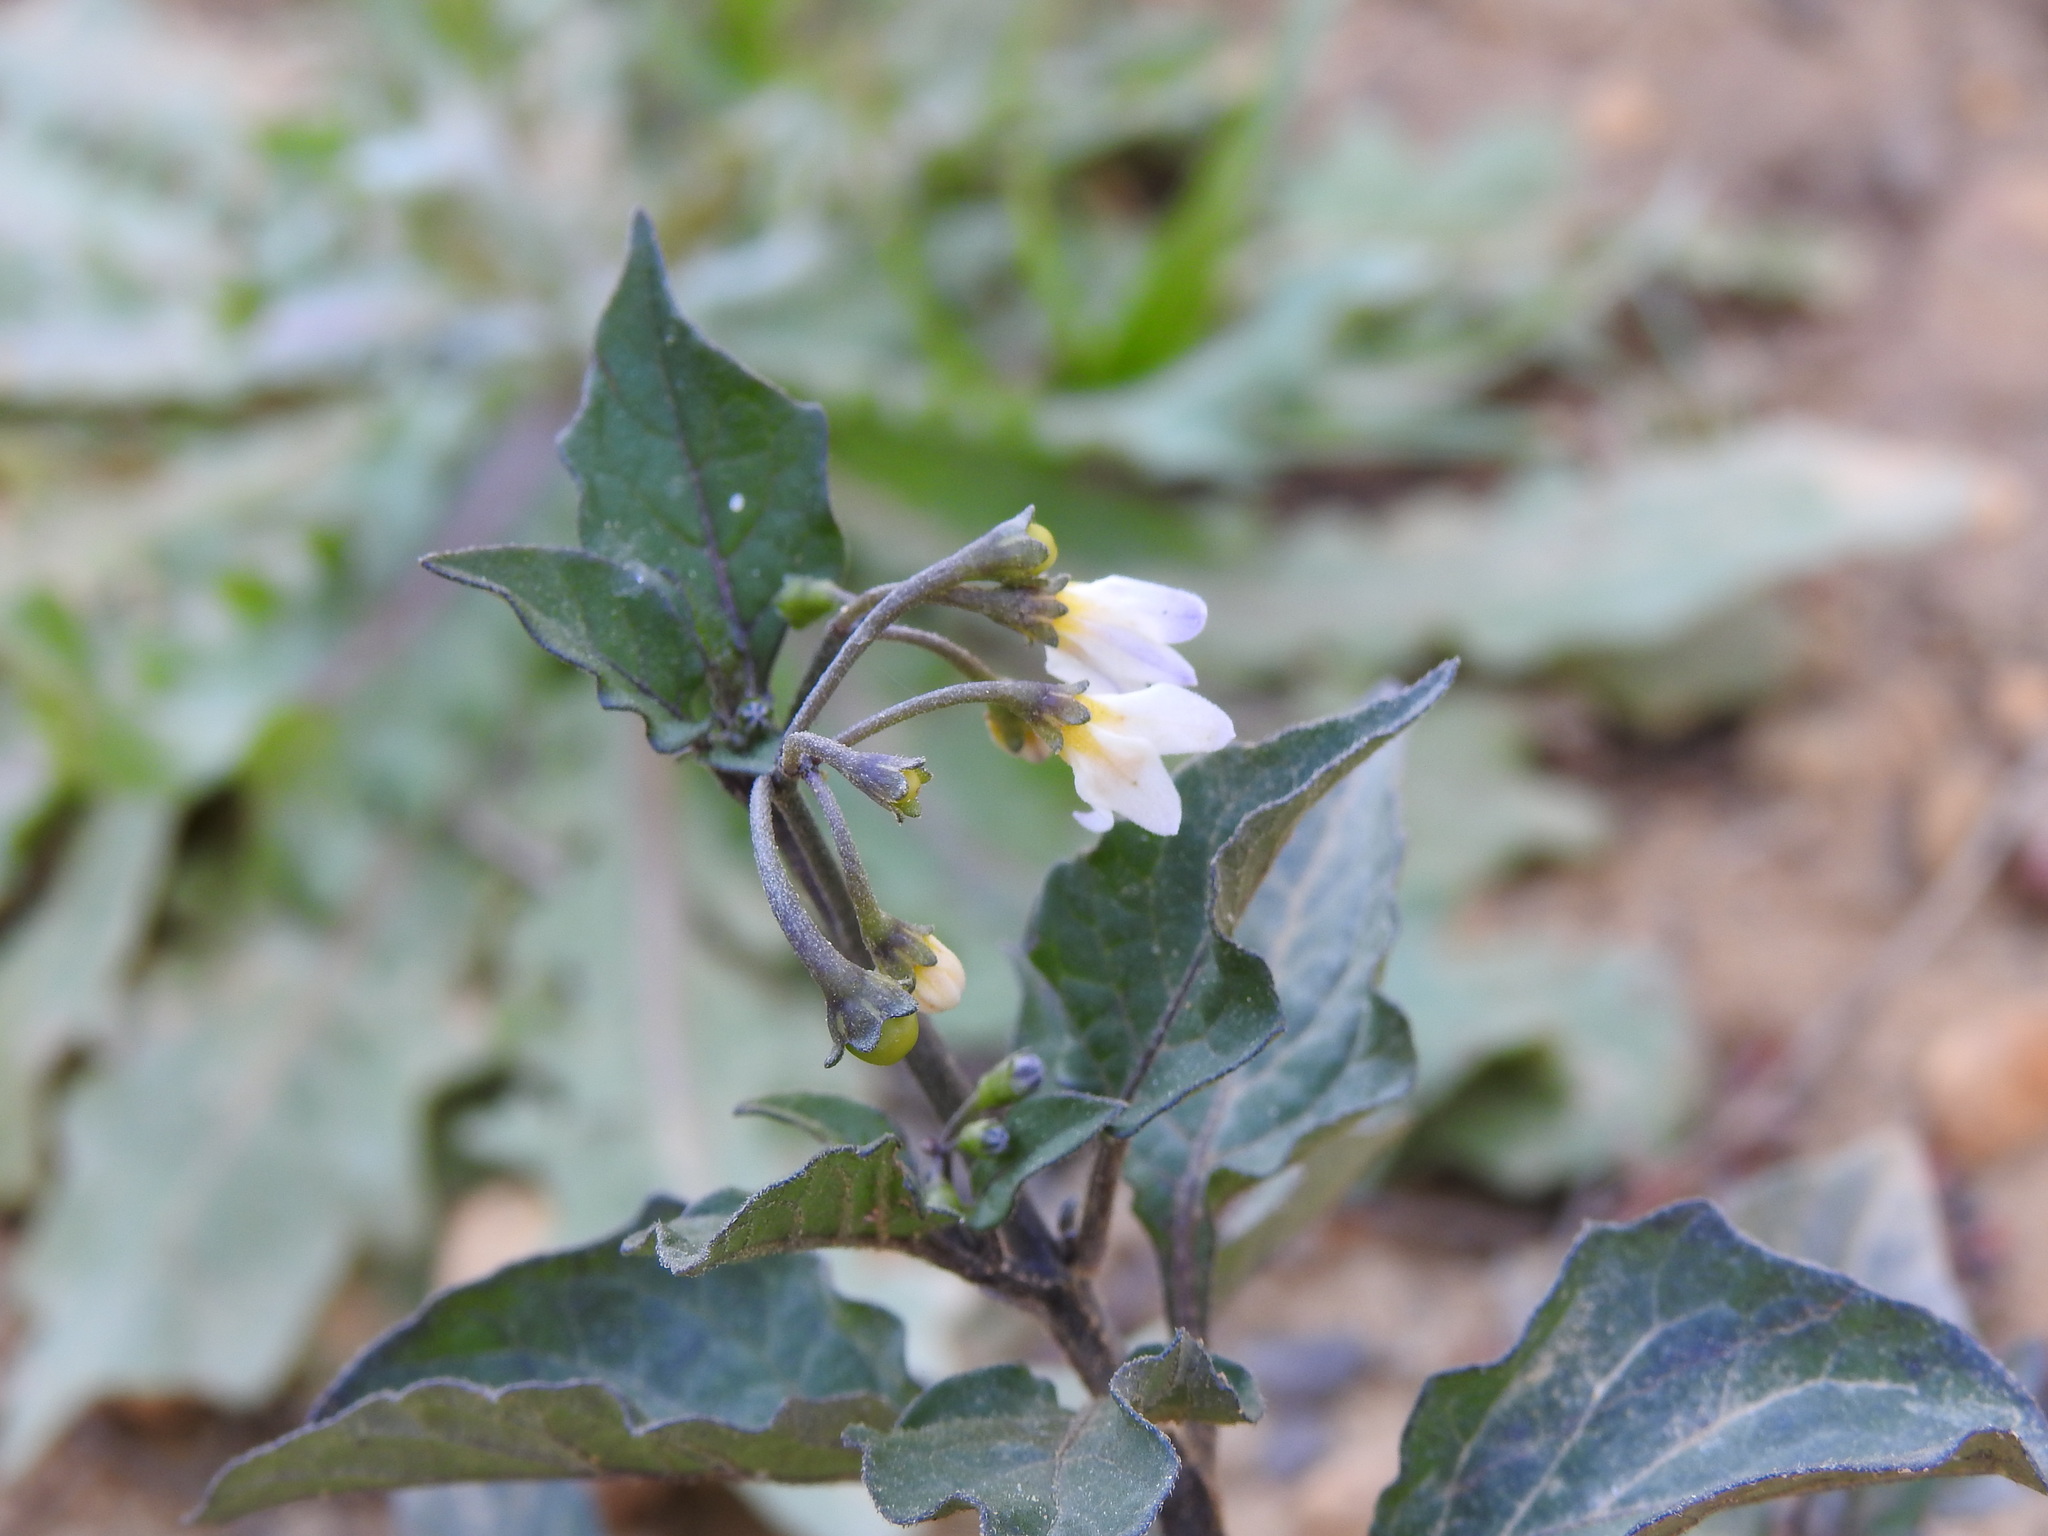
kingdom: Plantae
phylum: Tracheophyta
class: Magnoliopsida
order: Solanales
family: Solanaceae
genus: Solanum
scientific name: Solanum nigrum
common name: Black nightshade
